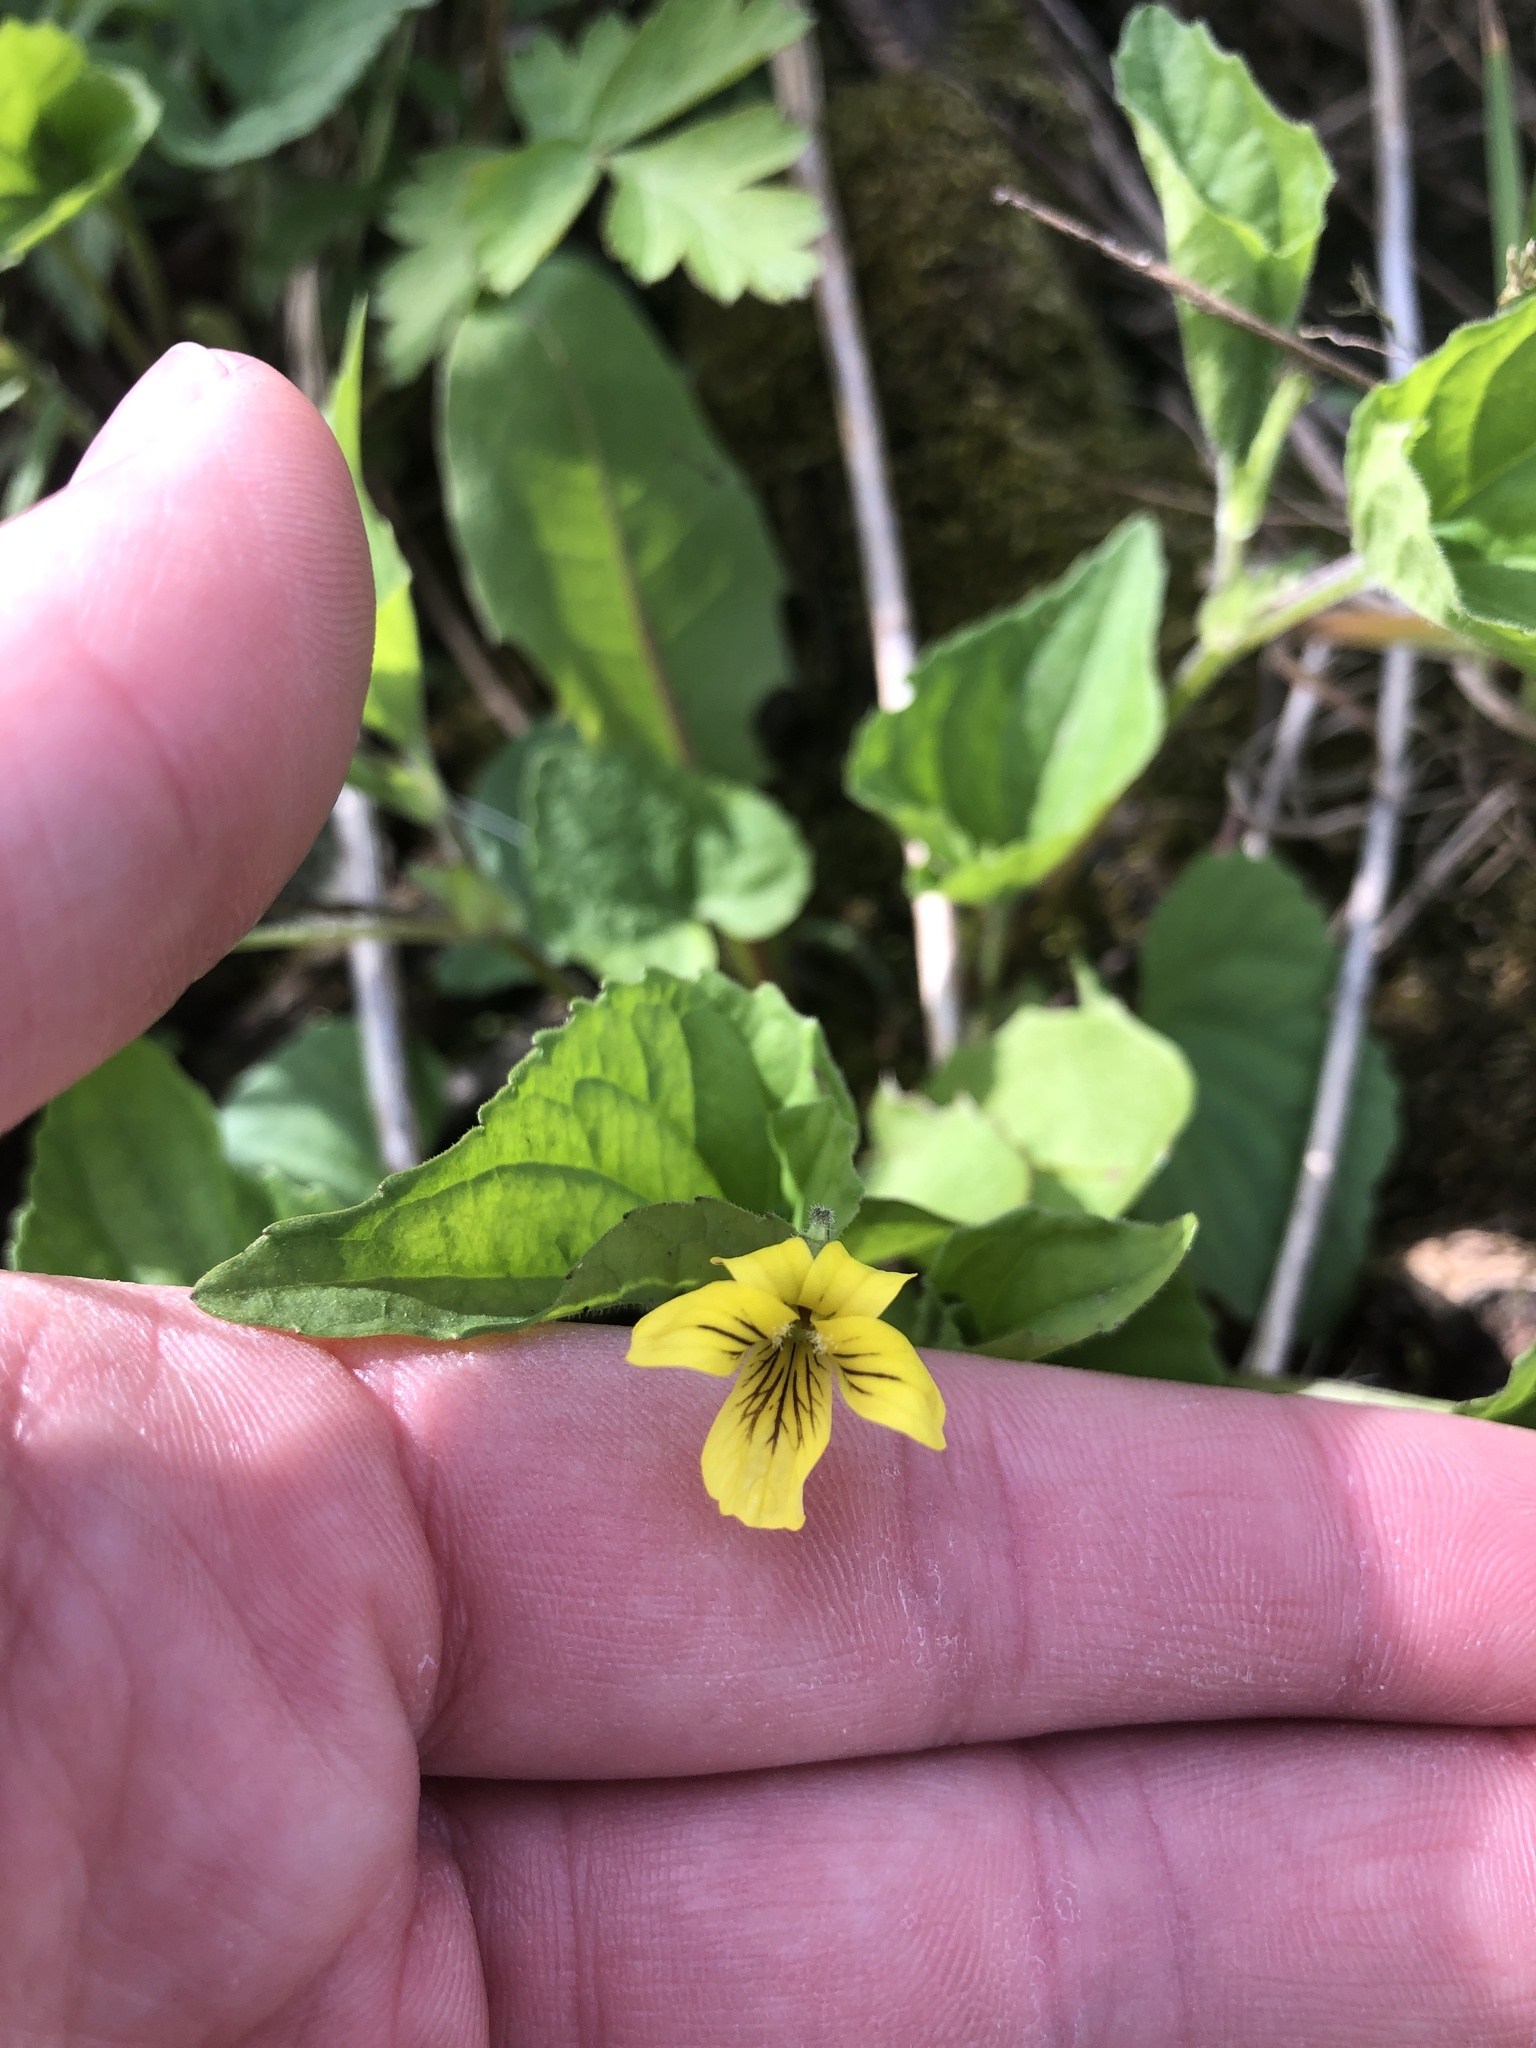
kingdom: Plantae
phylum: Tracheophyta
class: Magnoliopsida
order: Malpighiales
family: Violaceae
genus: Viola
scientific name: Viola eriocarpa
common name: Smooth yellow violet
